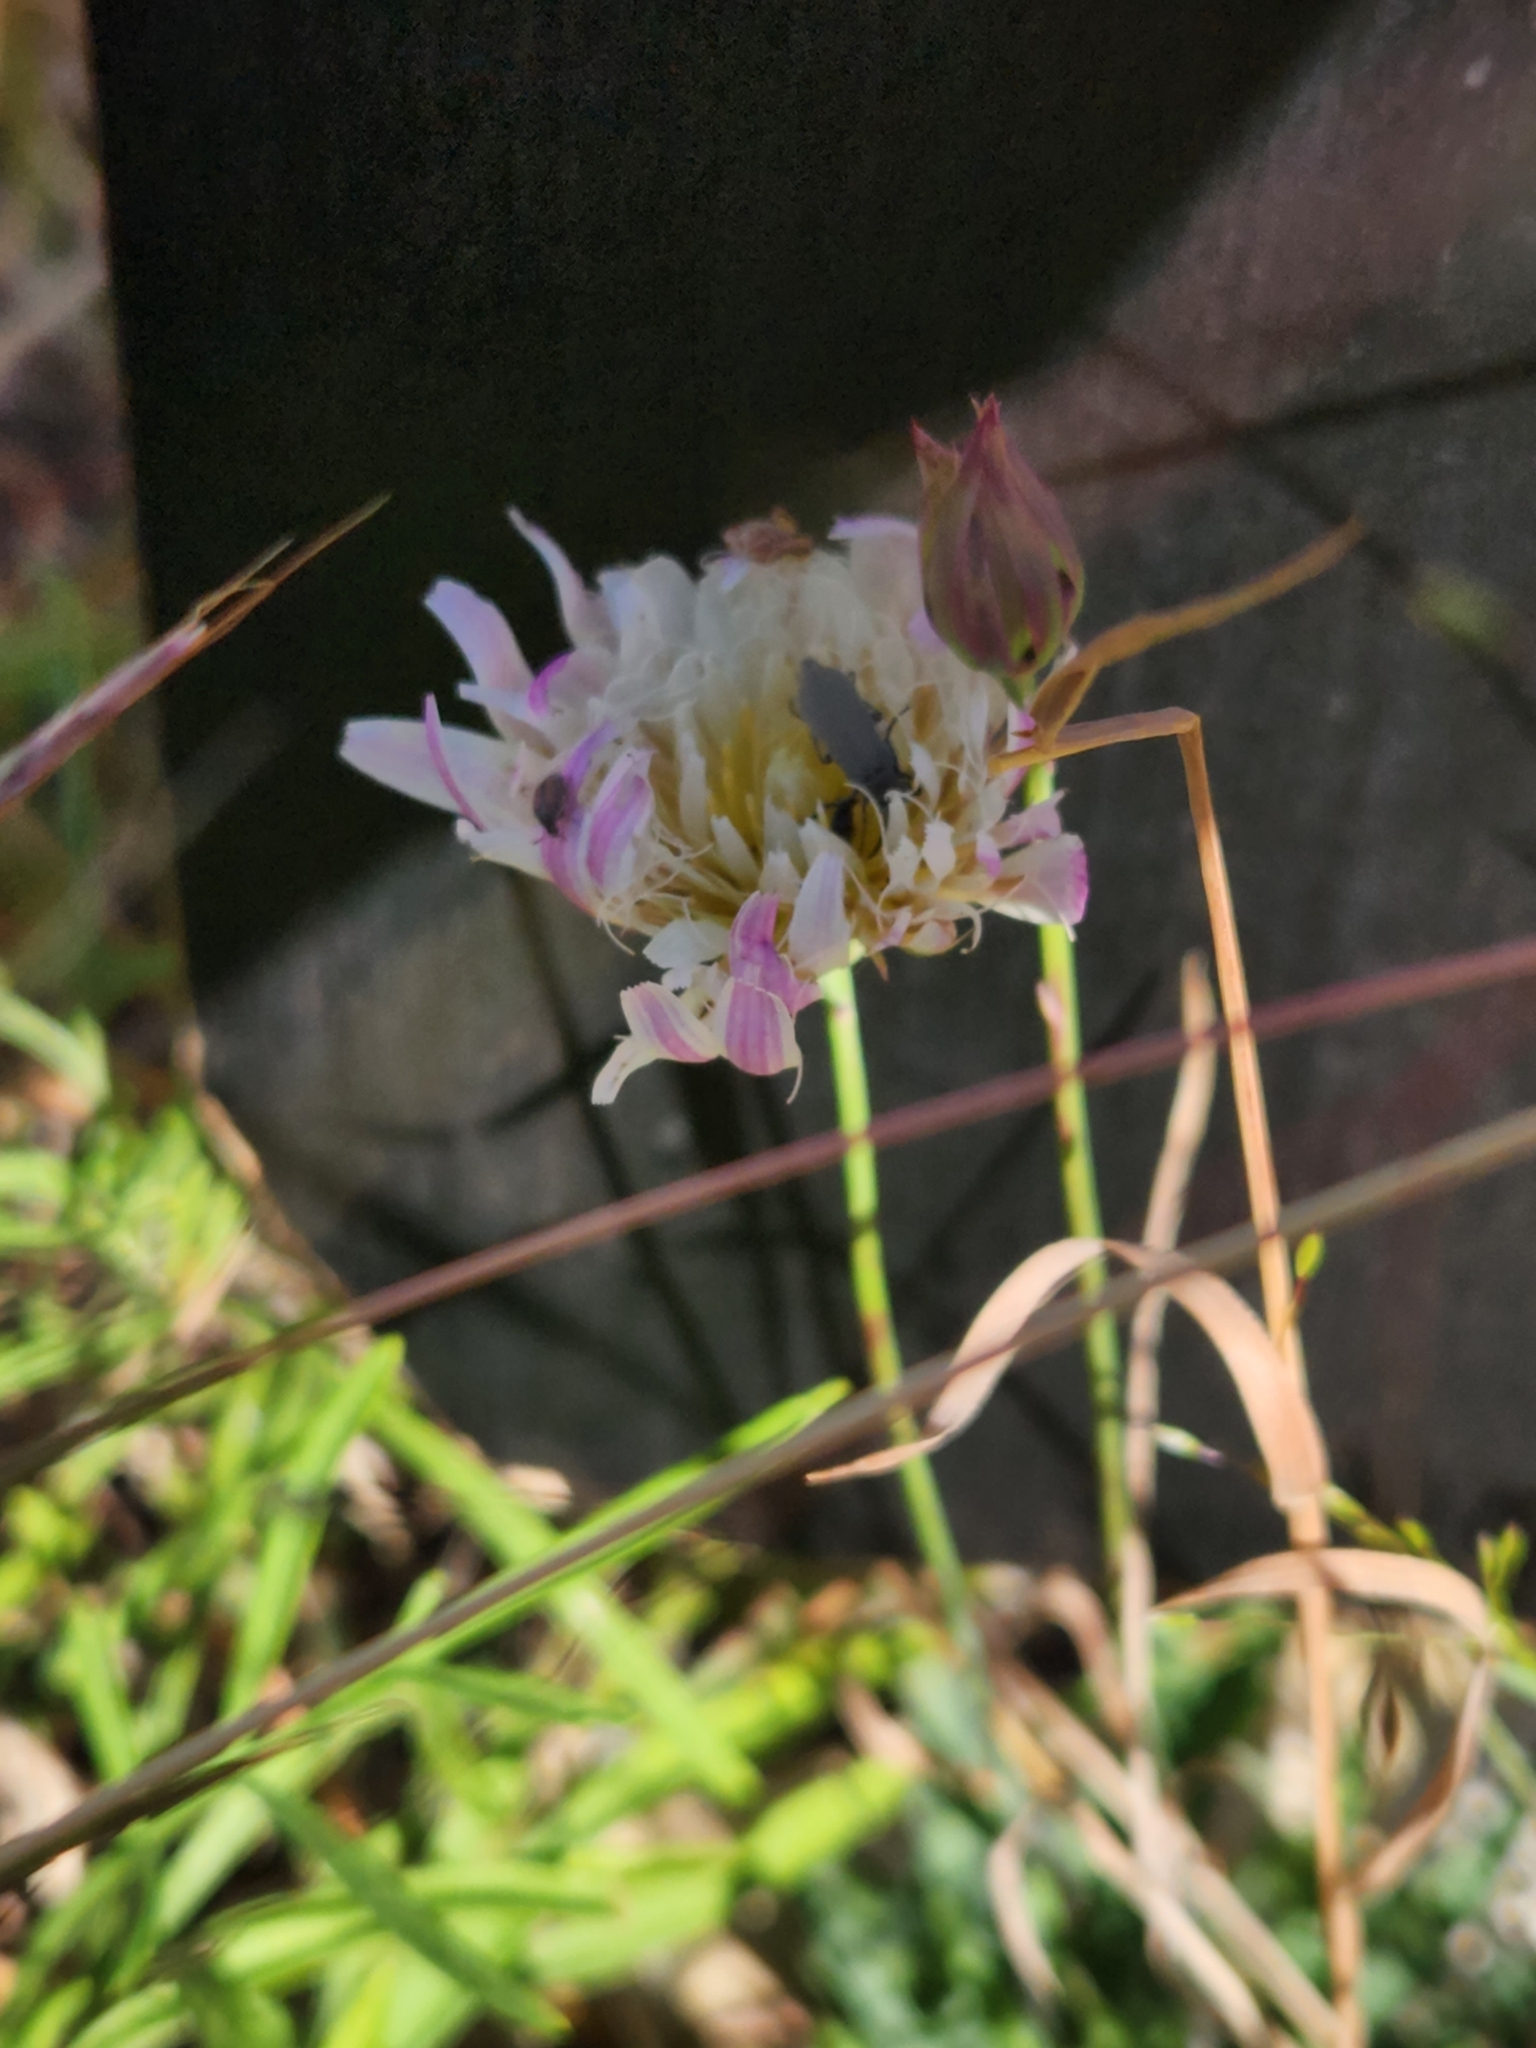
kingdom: Plantae
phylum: Tracheophyta
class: Magnoliopsida
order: Asterales
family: Asteraceae
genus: Pinaropappus
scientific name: Pinaropappus roseus
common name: Rock-lettuce
